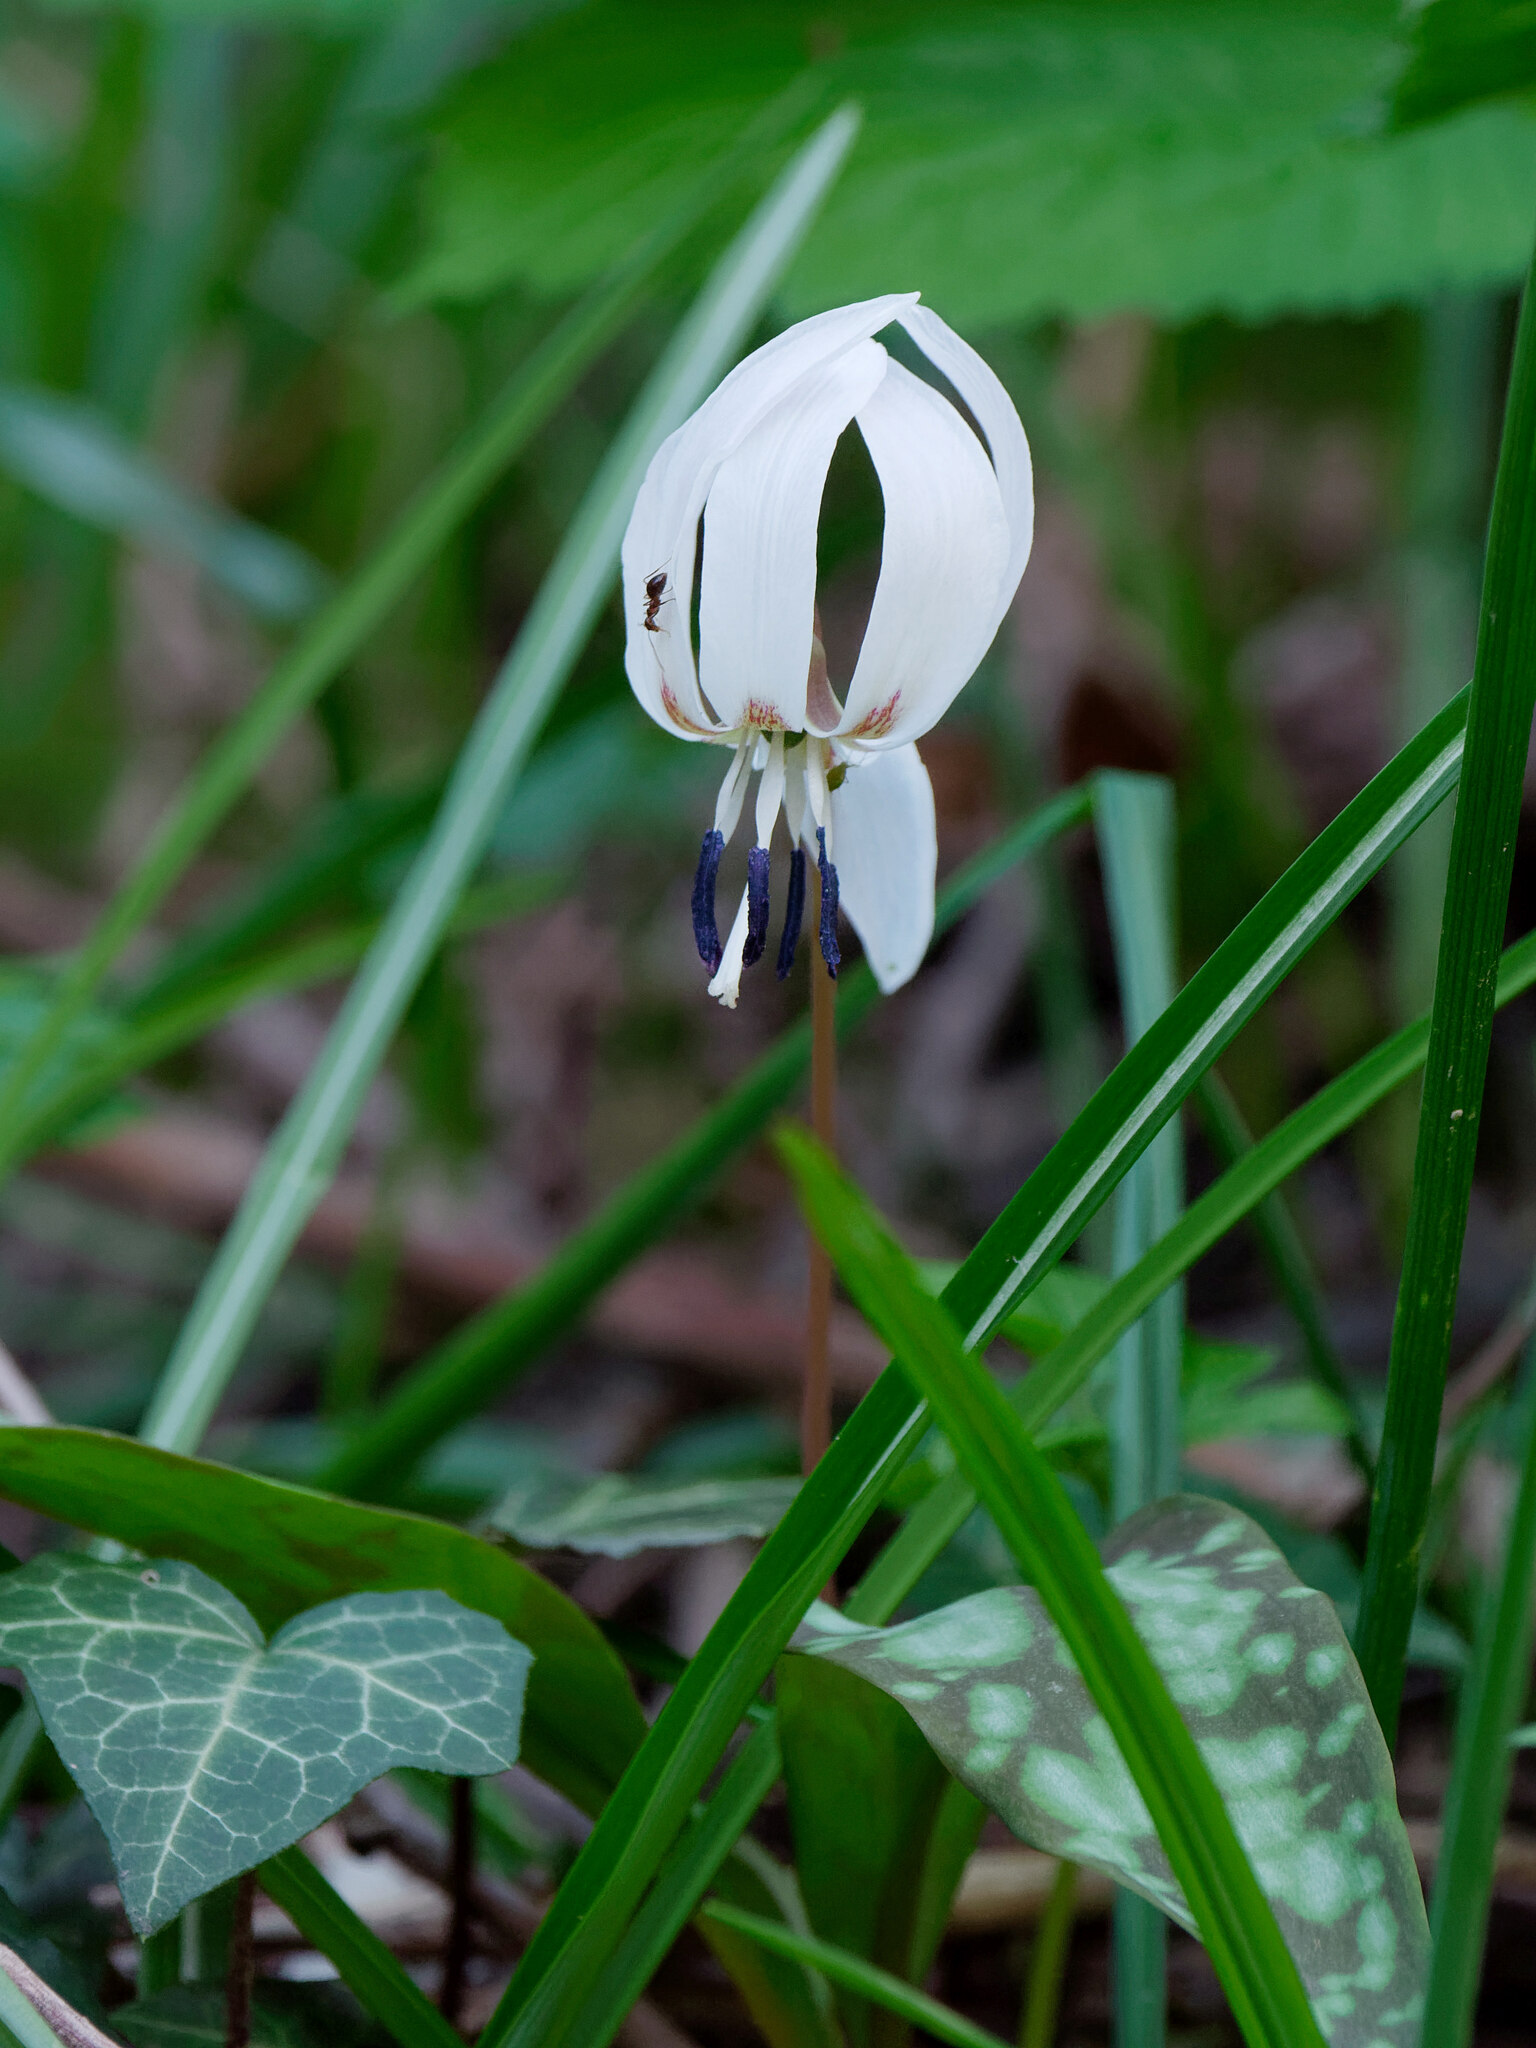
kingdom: Plantae
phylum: Tracheophyta
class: Liliopsida
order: Liliales
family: Liliaceae
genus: Erythronium
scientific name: Erythronium dens-canis
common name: Dog's-tooth-violet
